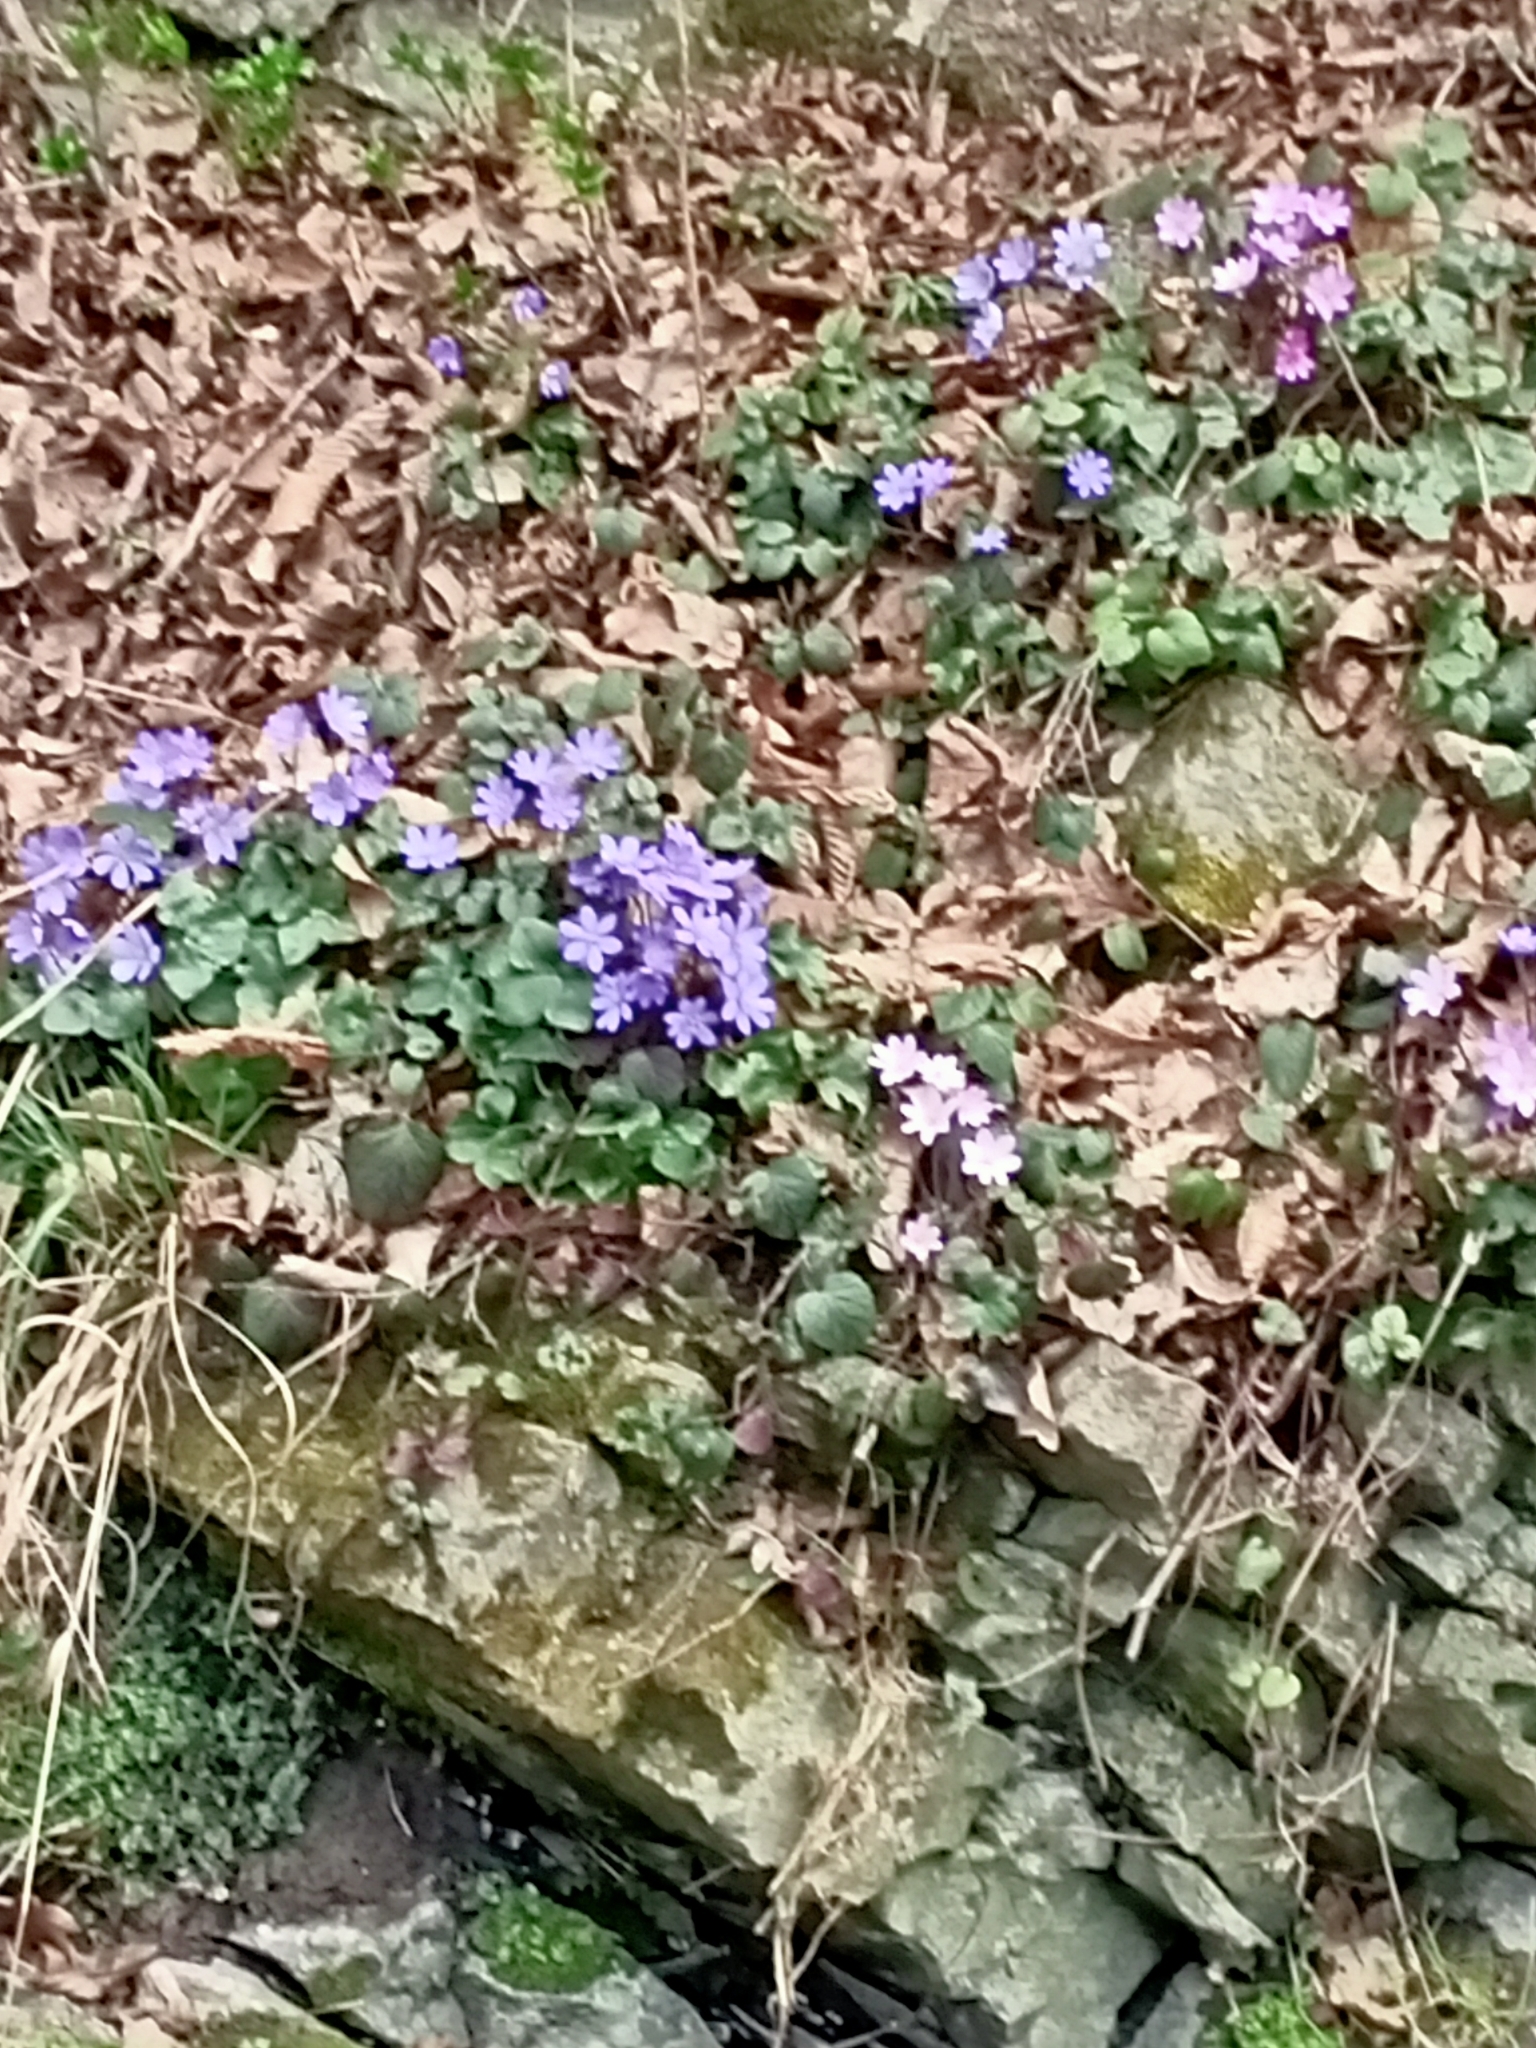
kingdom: Plantae
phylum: Tracheophyta
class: Magnoliopsida
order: Ranunculales
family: Ranunculaceae
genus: Hepatica
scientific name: Hepatica nobilis
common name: Liverleaf
